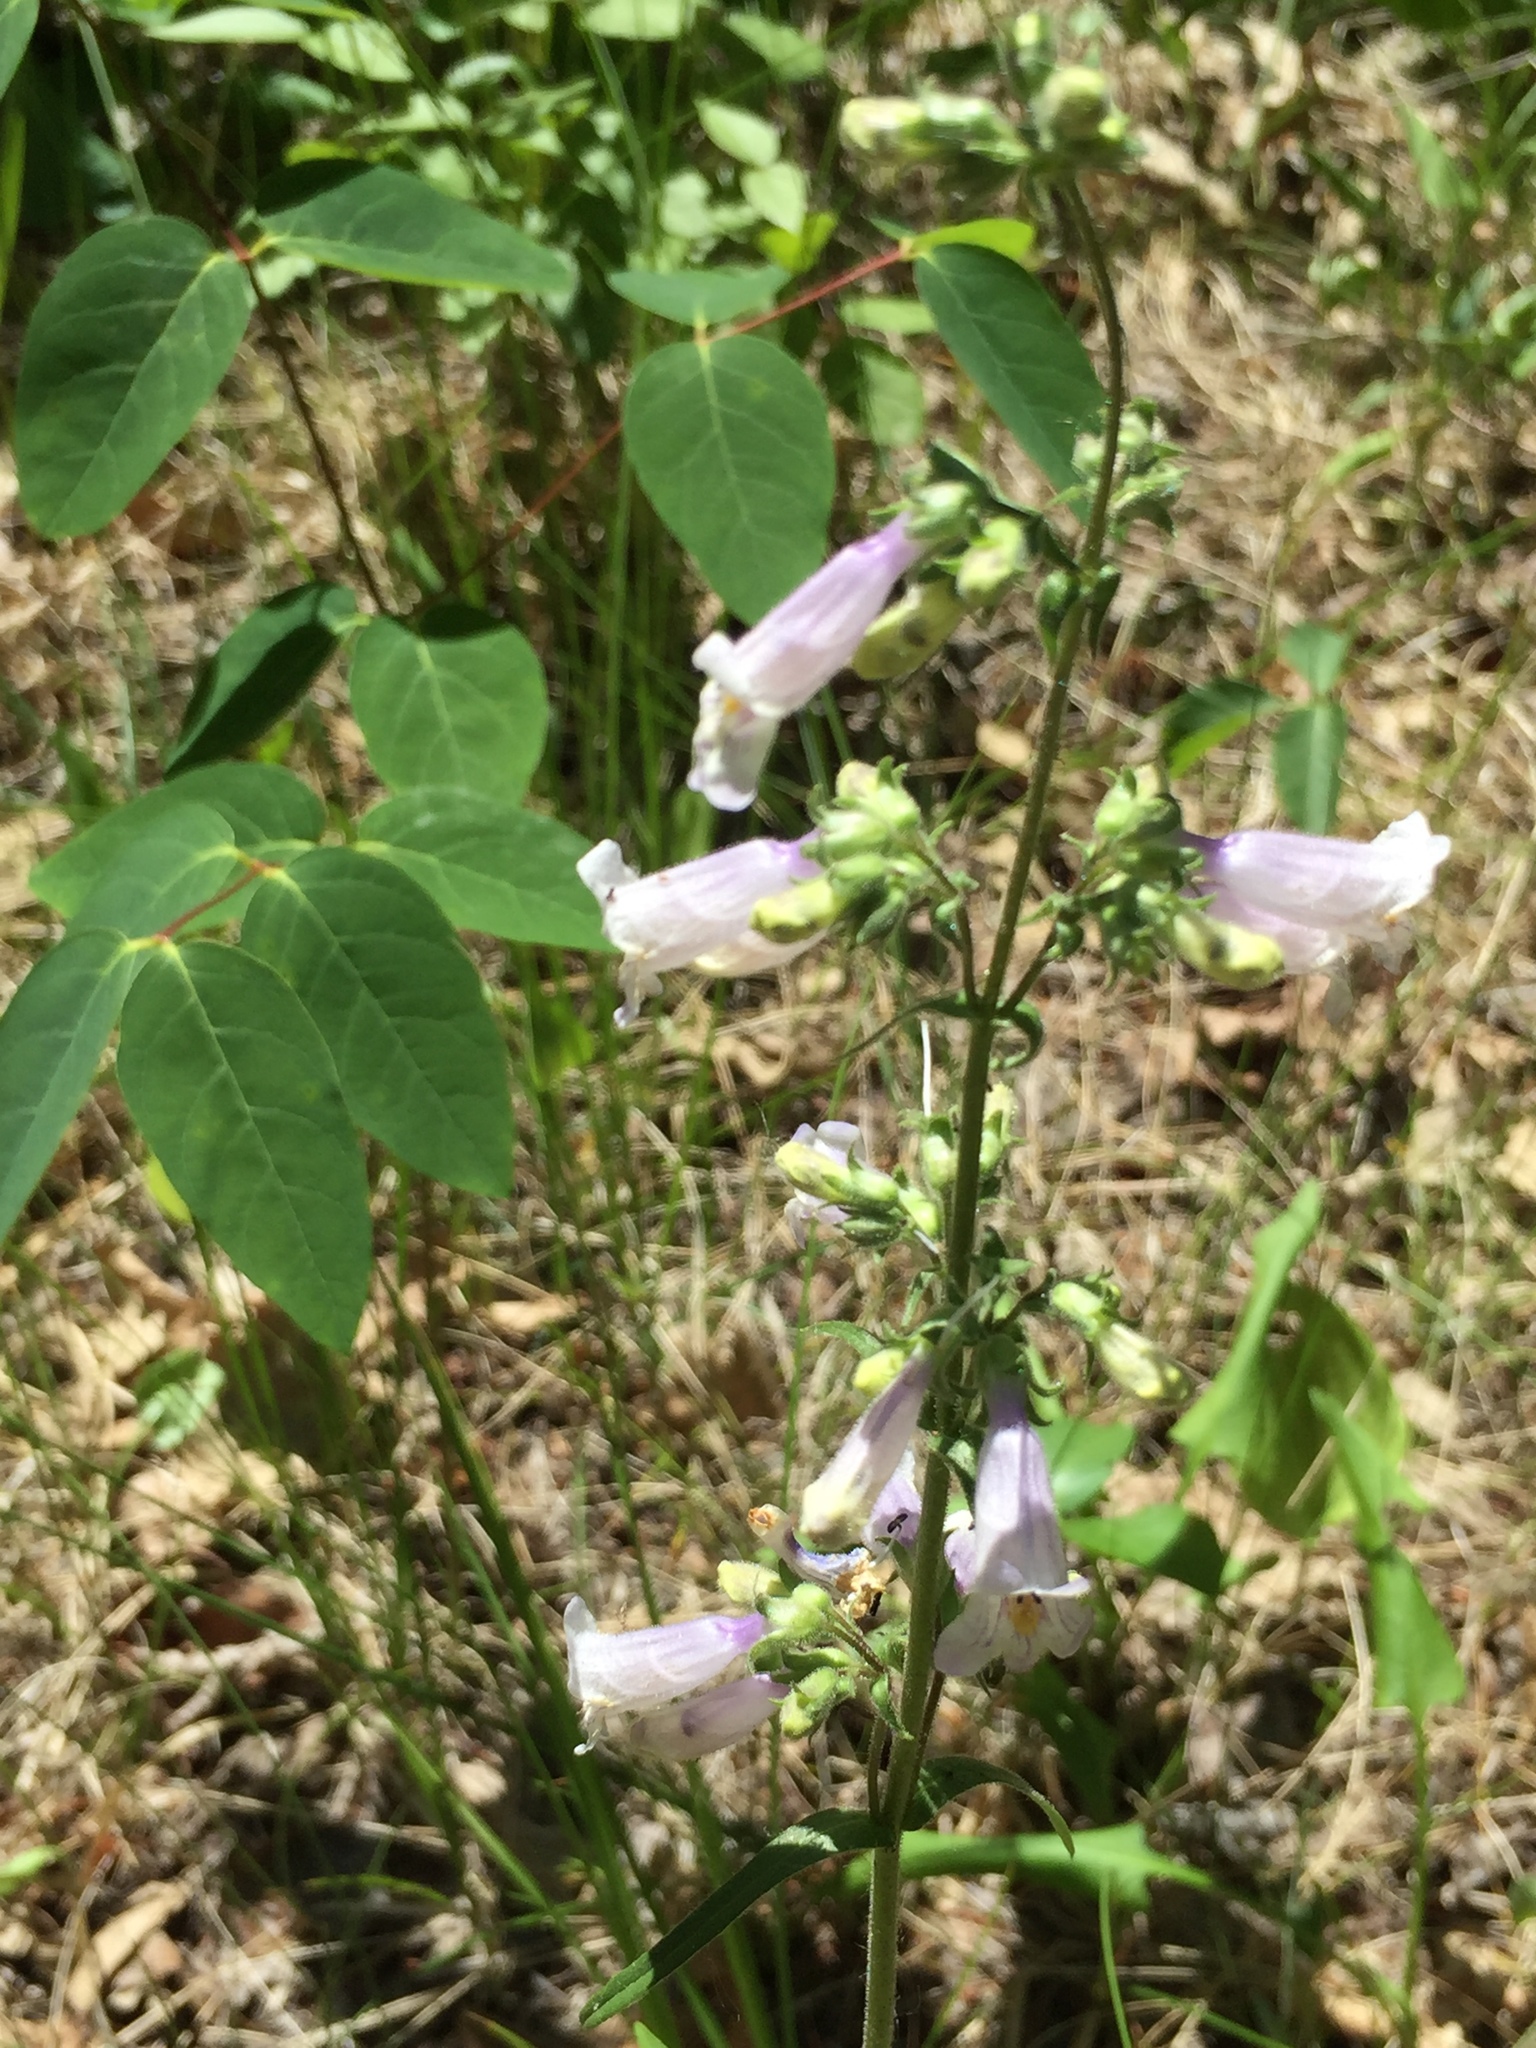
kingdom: Plantae
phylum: Tracheophyta
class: Magnoliopsida
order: Lamiales
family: Plantaginaceae
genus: Penstemon
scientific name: Penstemon gracilis
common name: Slender beardtongue
